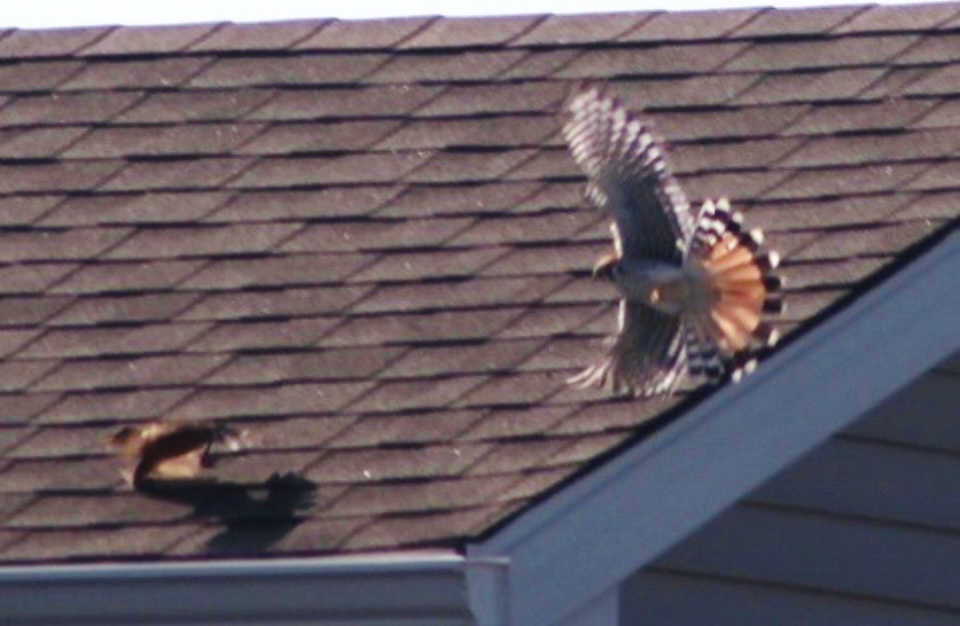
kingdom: Animalia
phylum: Chordata
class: Aves
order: Passeriformes
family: Passeridae
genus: Passer
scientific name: Passer domesticus
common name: House sparrow
